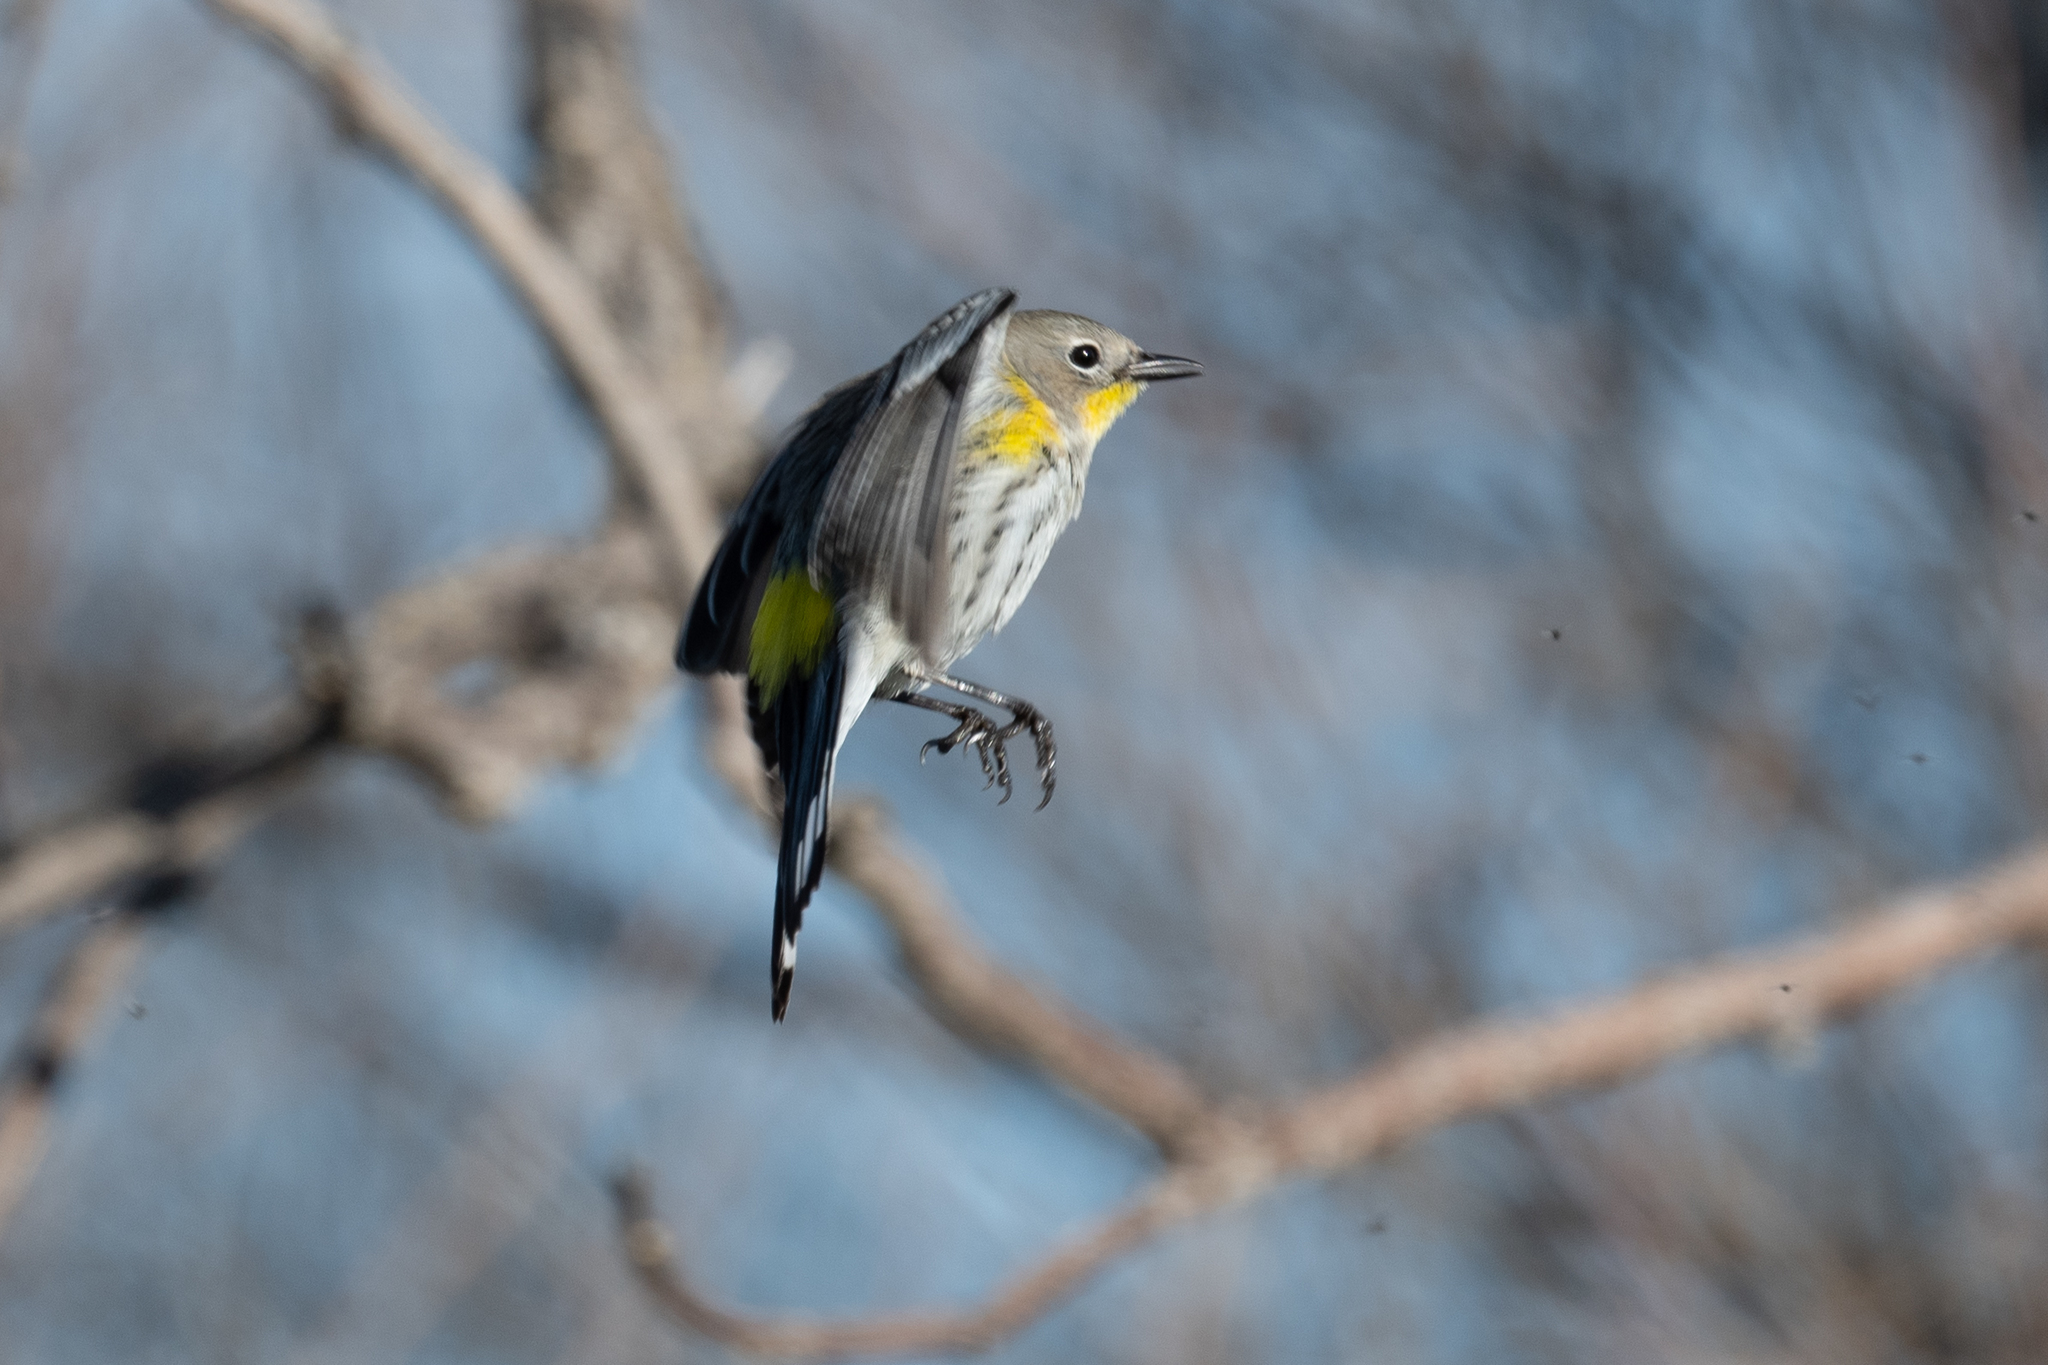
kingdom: Animalia
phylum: Chordata
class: Aves
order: Passeriformes
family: Parulidae
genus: Setophaga
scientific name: Setophaga coronata
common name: Myrtle warbler
